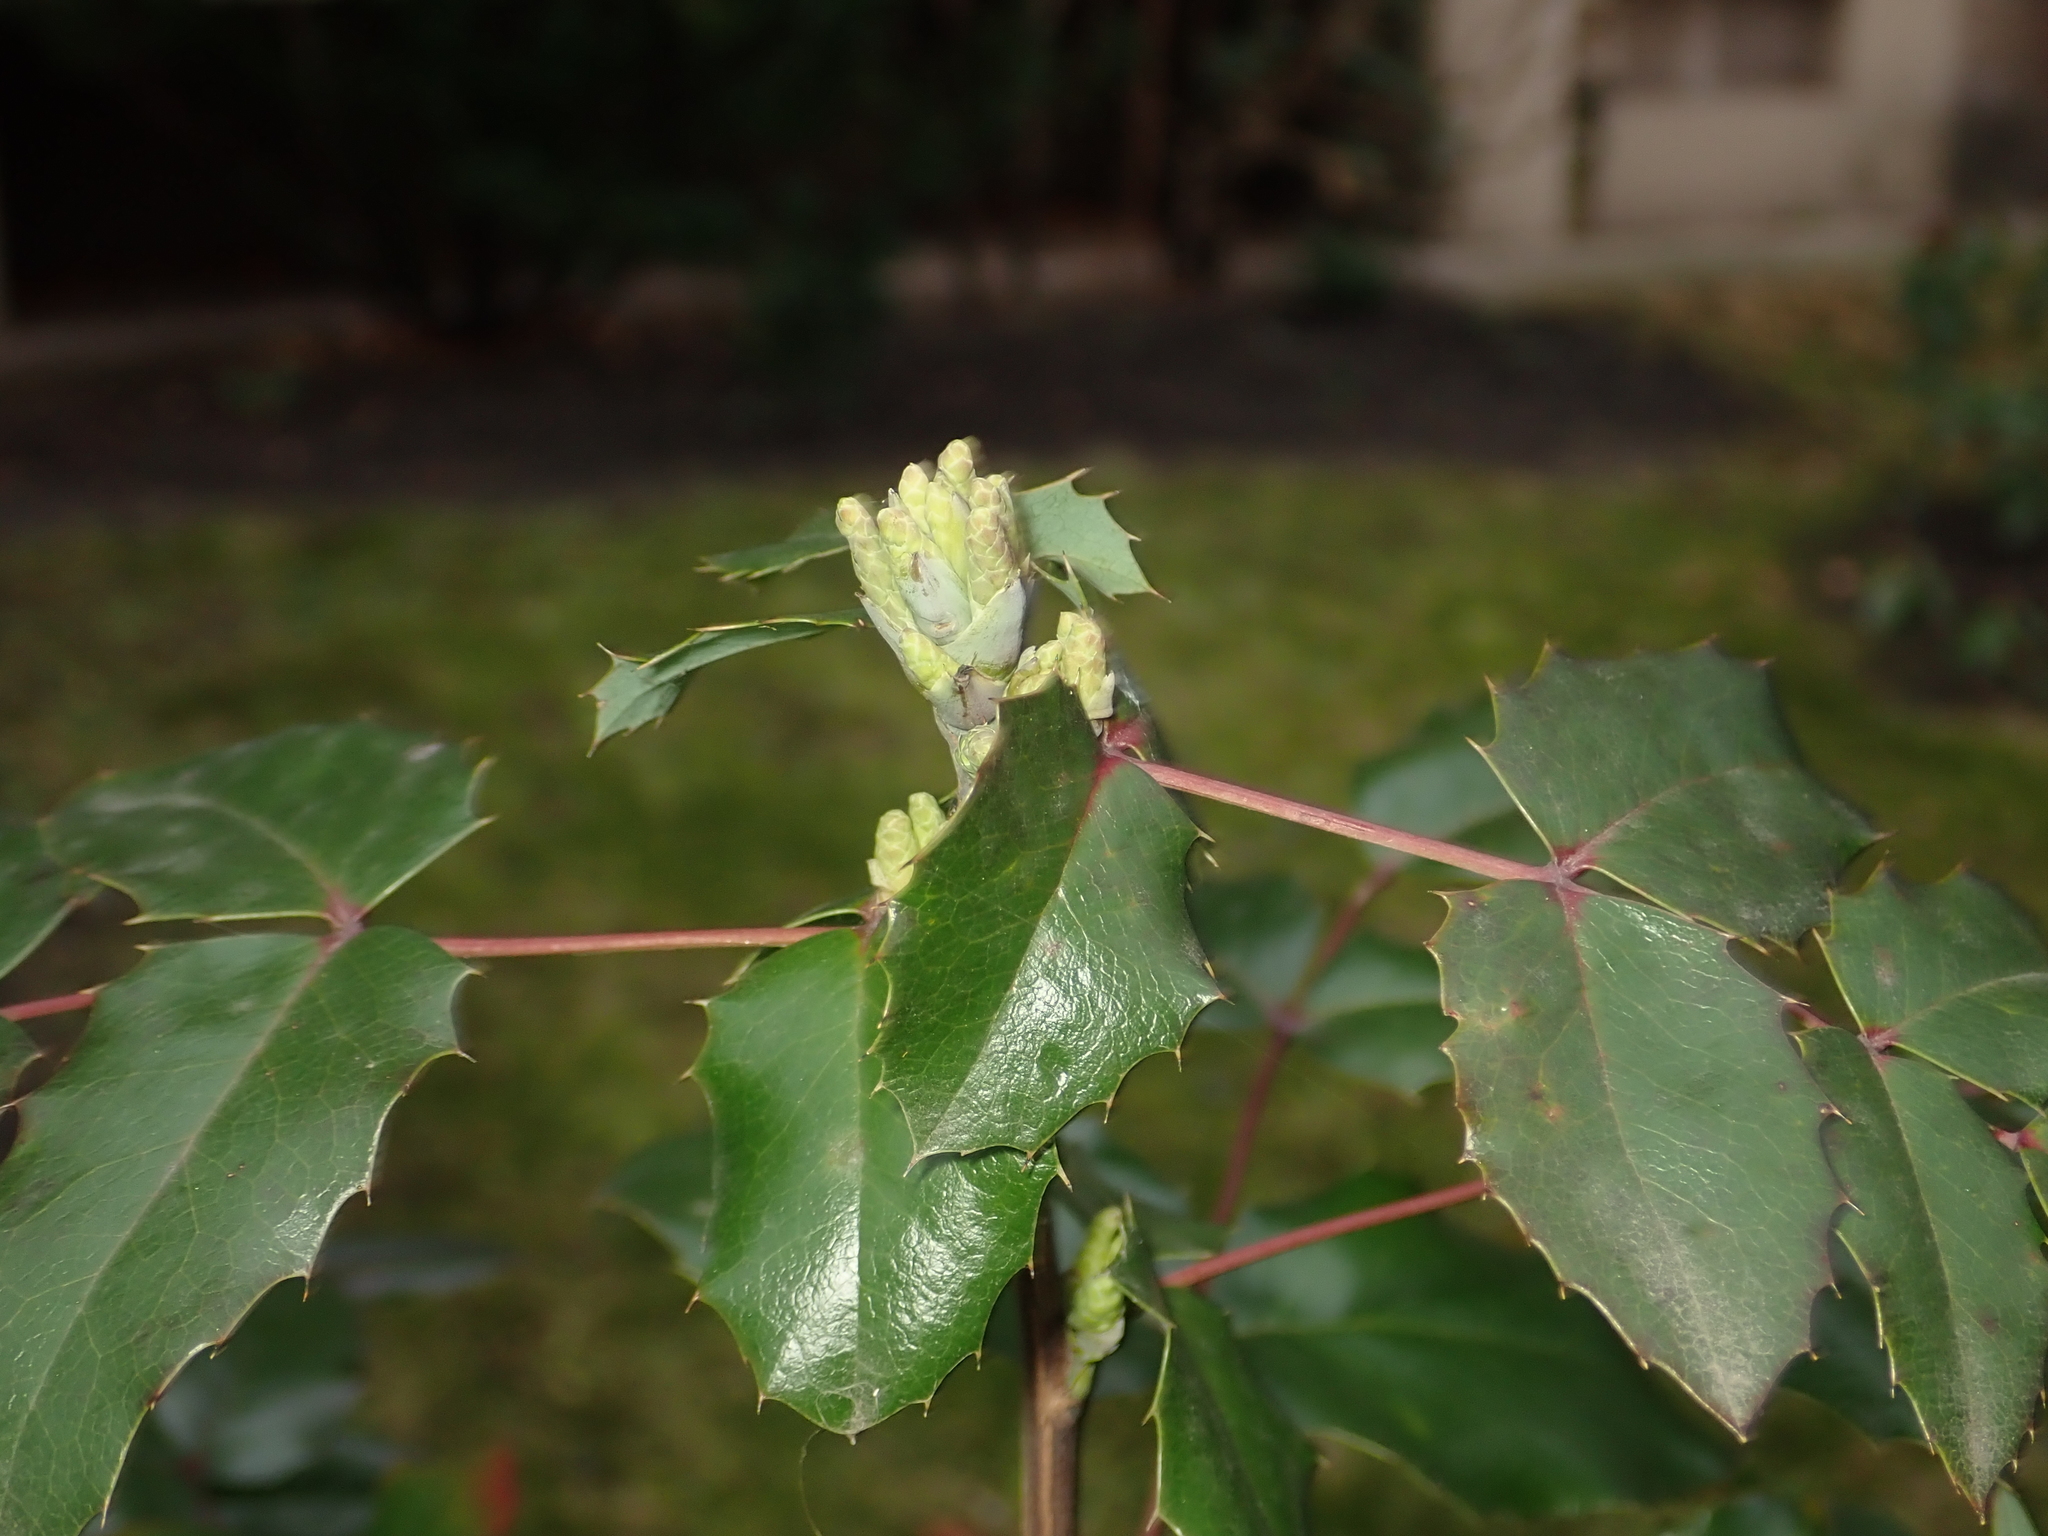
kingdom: Plantae
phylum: Tracheophyta
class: Magnoliopsida
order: Ranunculales
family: Berberidaceae
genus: Mahonia
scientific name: Mahonia aquifolium
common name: Oregon-grape
